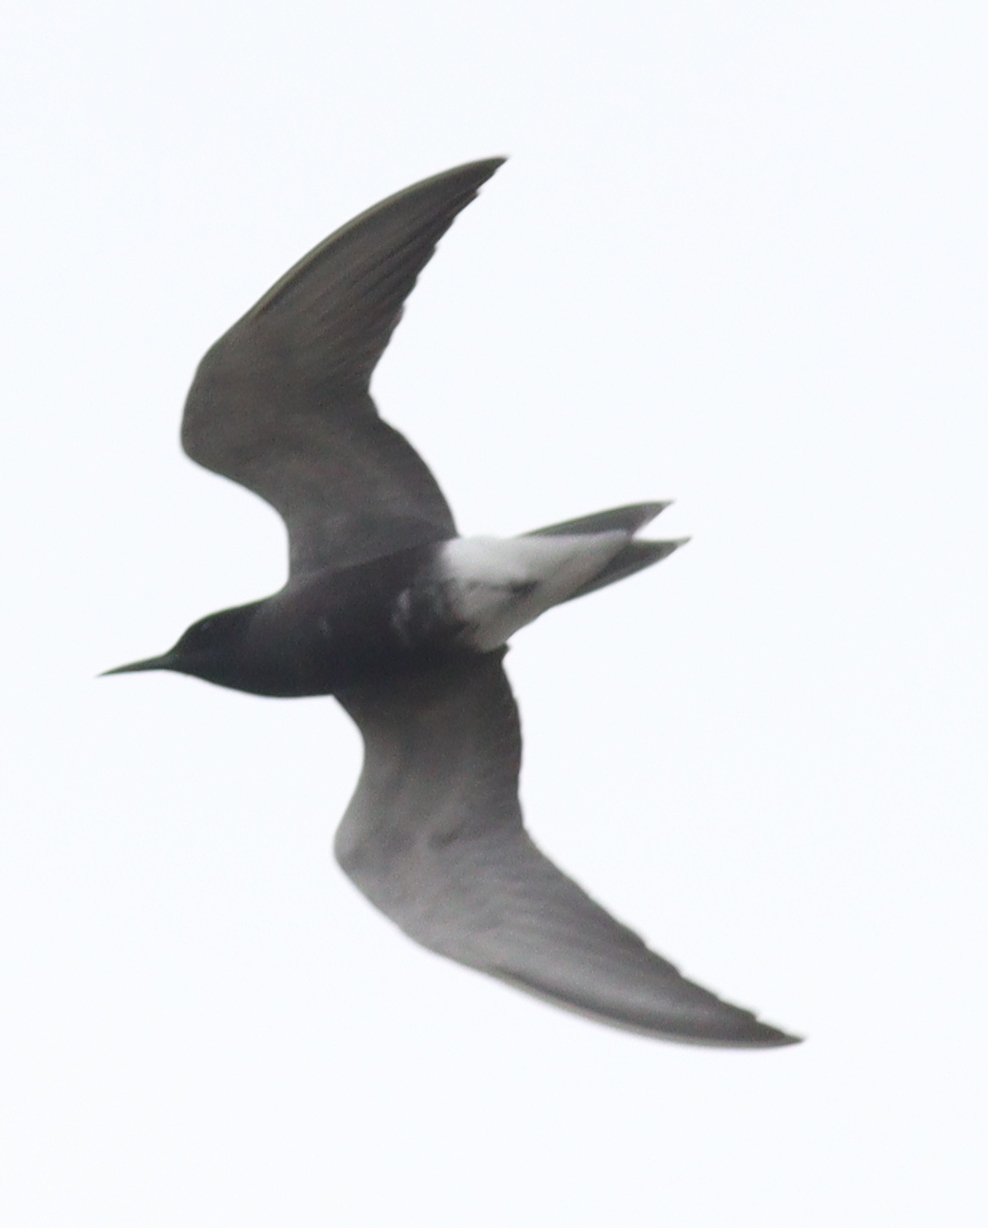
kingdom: Animalia
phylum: Chordata
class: Aves
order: Charadriiformes
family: Laridae
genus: Chlidonias
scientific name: Chlidonias niger
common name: Black tern
